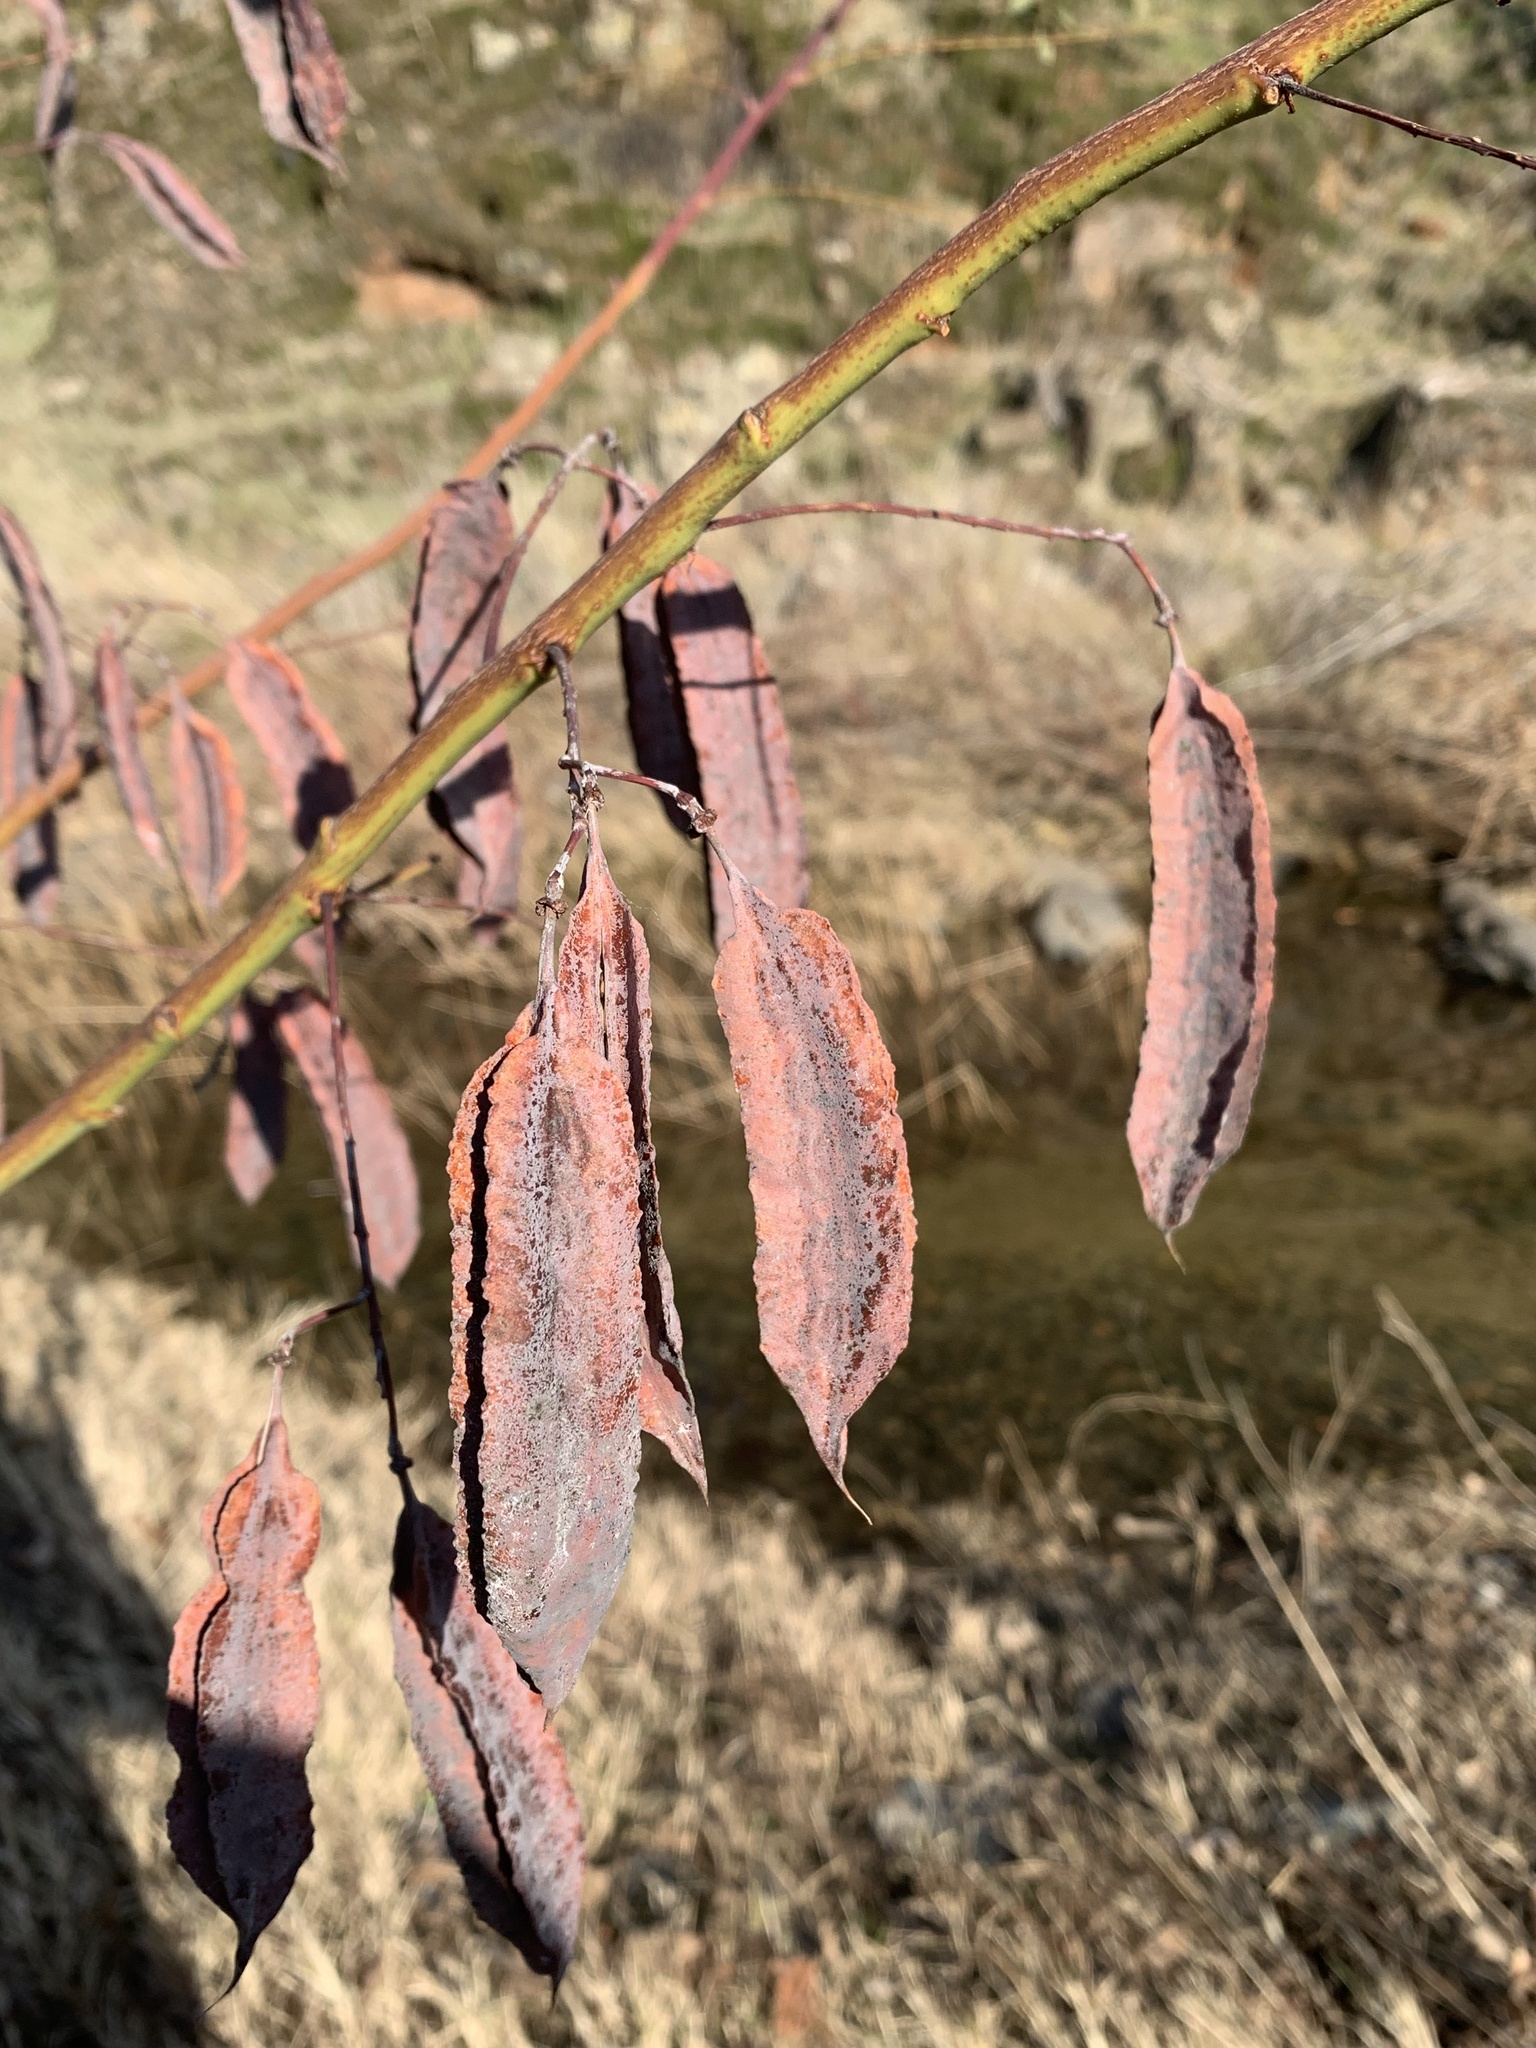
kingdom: Plantae
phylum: Tracheophyta
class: Magnoliopsida
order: Fabales
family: Fabaceae
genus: Sesbania
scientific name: Sesbania punicea
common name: Rattlebox
